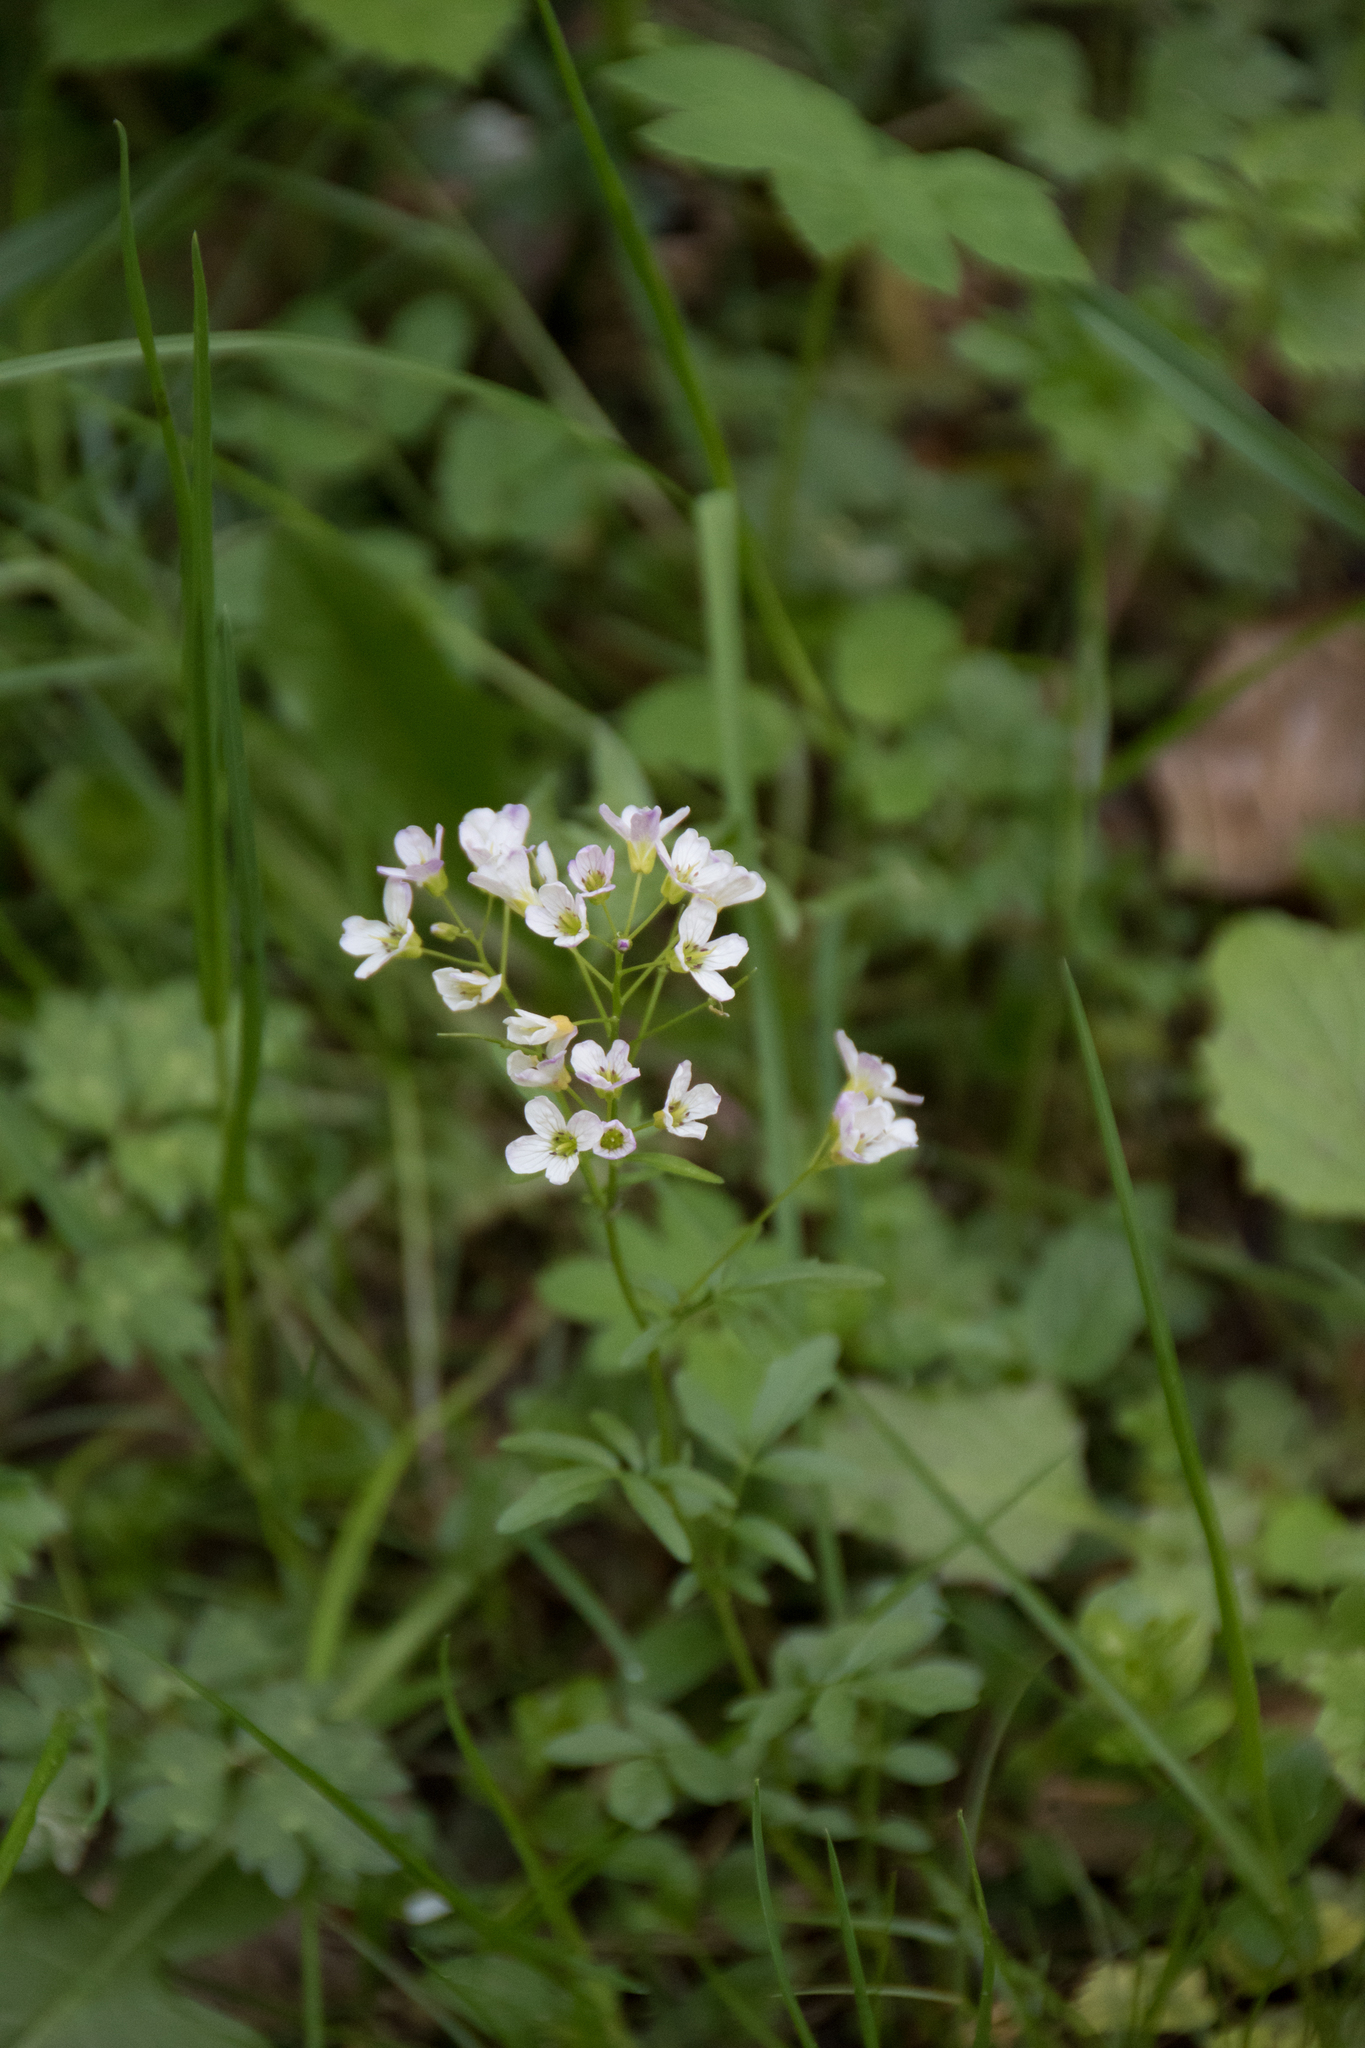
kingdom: Plantae
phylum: Tracheophyta
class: Magnoliopsida
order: Brassicales
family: Brassicaceae
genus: Cardamine
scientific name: Cardamine amara
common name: Large bitter-cress
